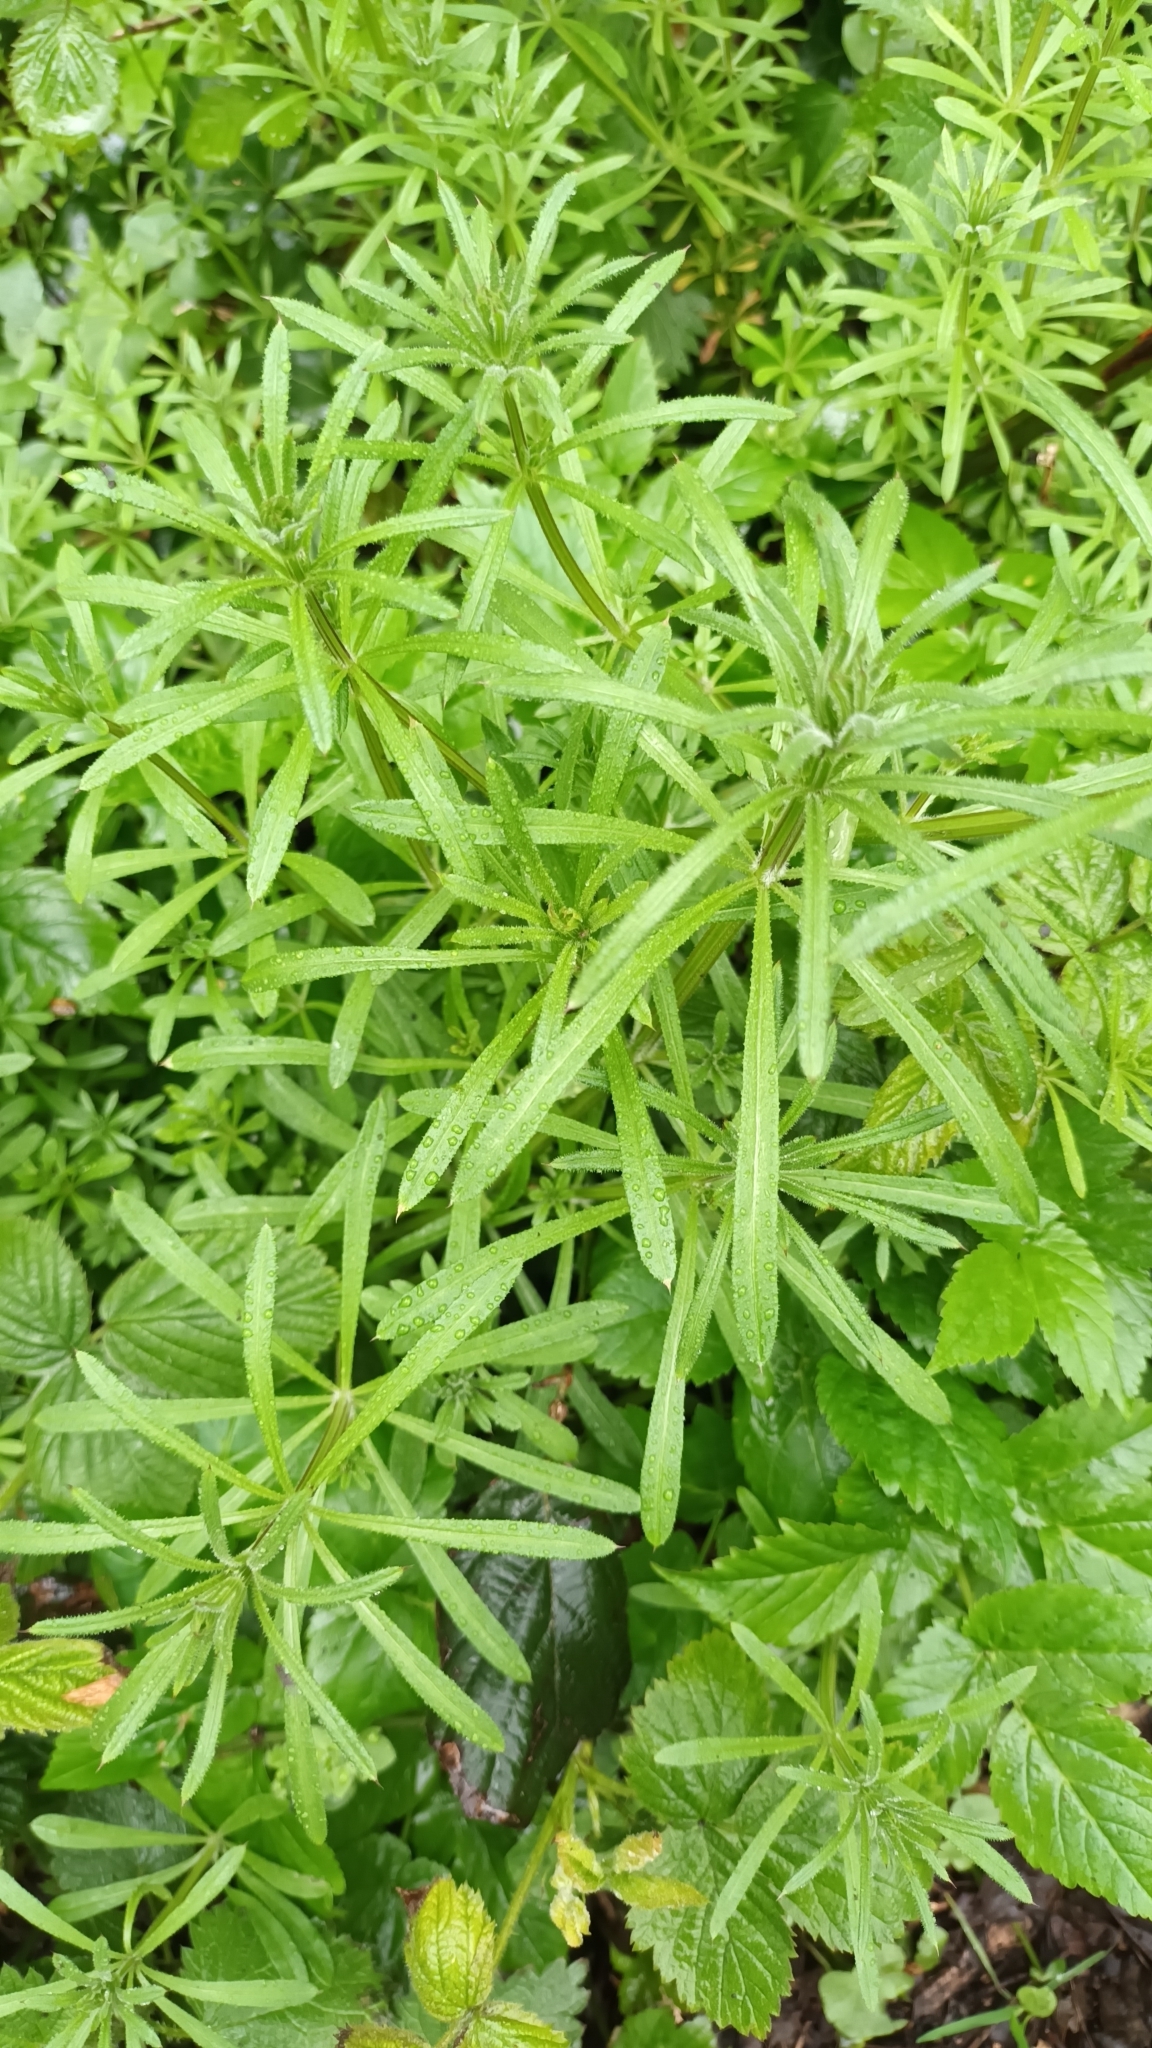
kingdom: Plantae
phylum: Tracheophyta
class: Magnoliopsida
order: Gentianales
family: Rubiaceae
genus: Galium
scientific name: Galium aparine
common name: Cleavers
